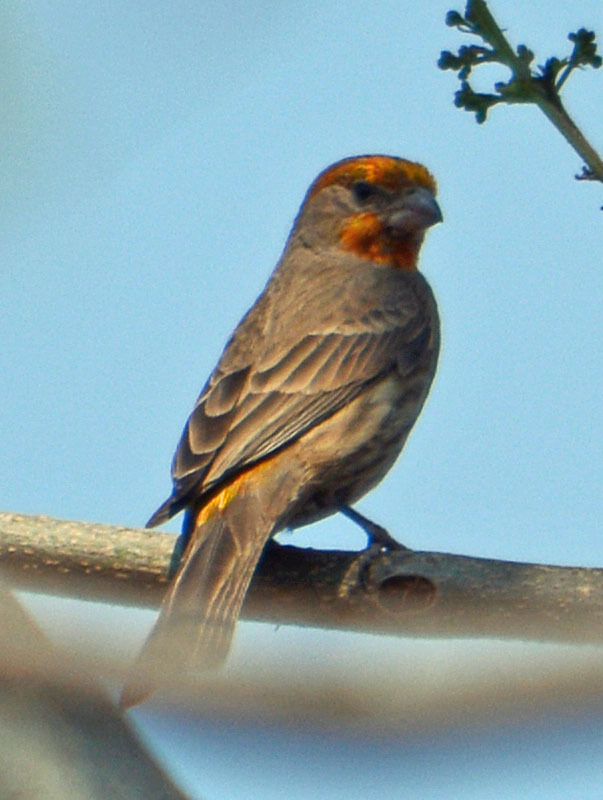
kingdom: Animalia
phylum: Chordata
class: Aves
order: Passeriformes
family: Fringillidae
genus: Haemorhous
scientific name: Haemorhous mexicanus
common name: House finch
